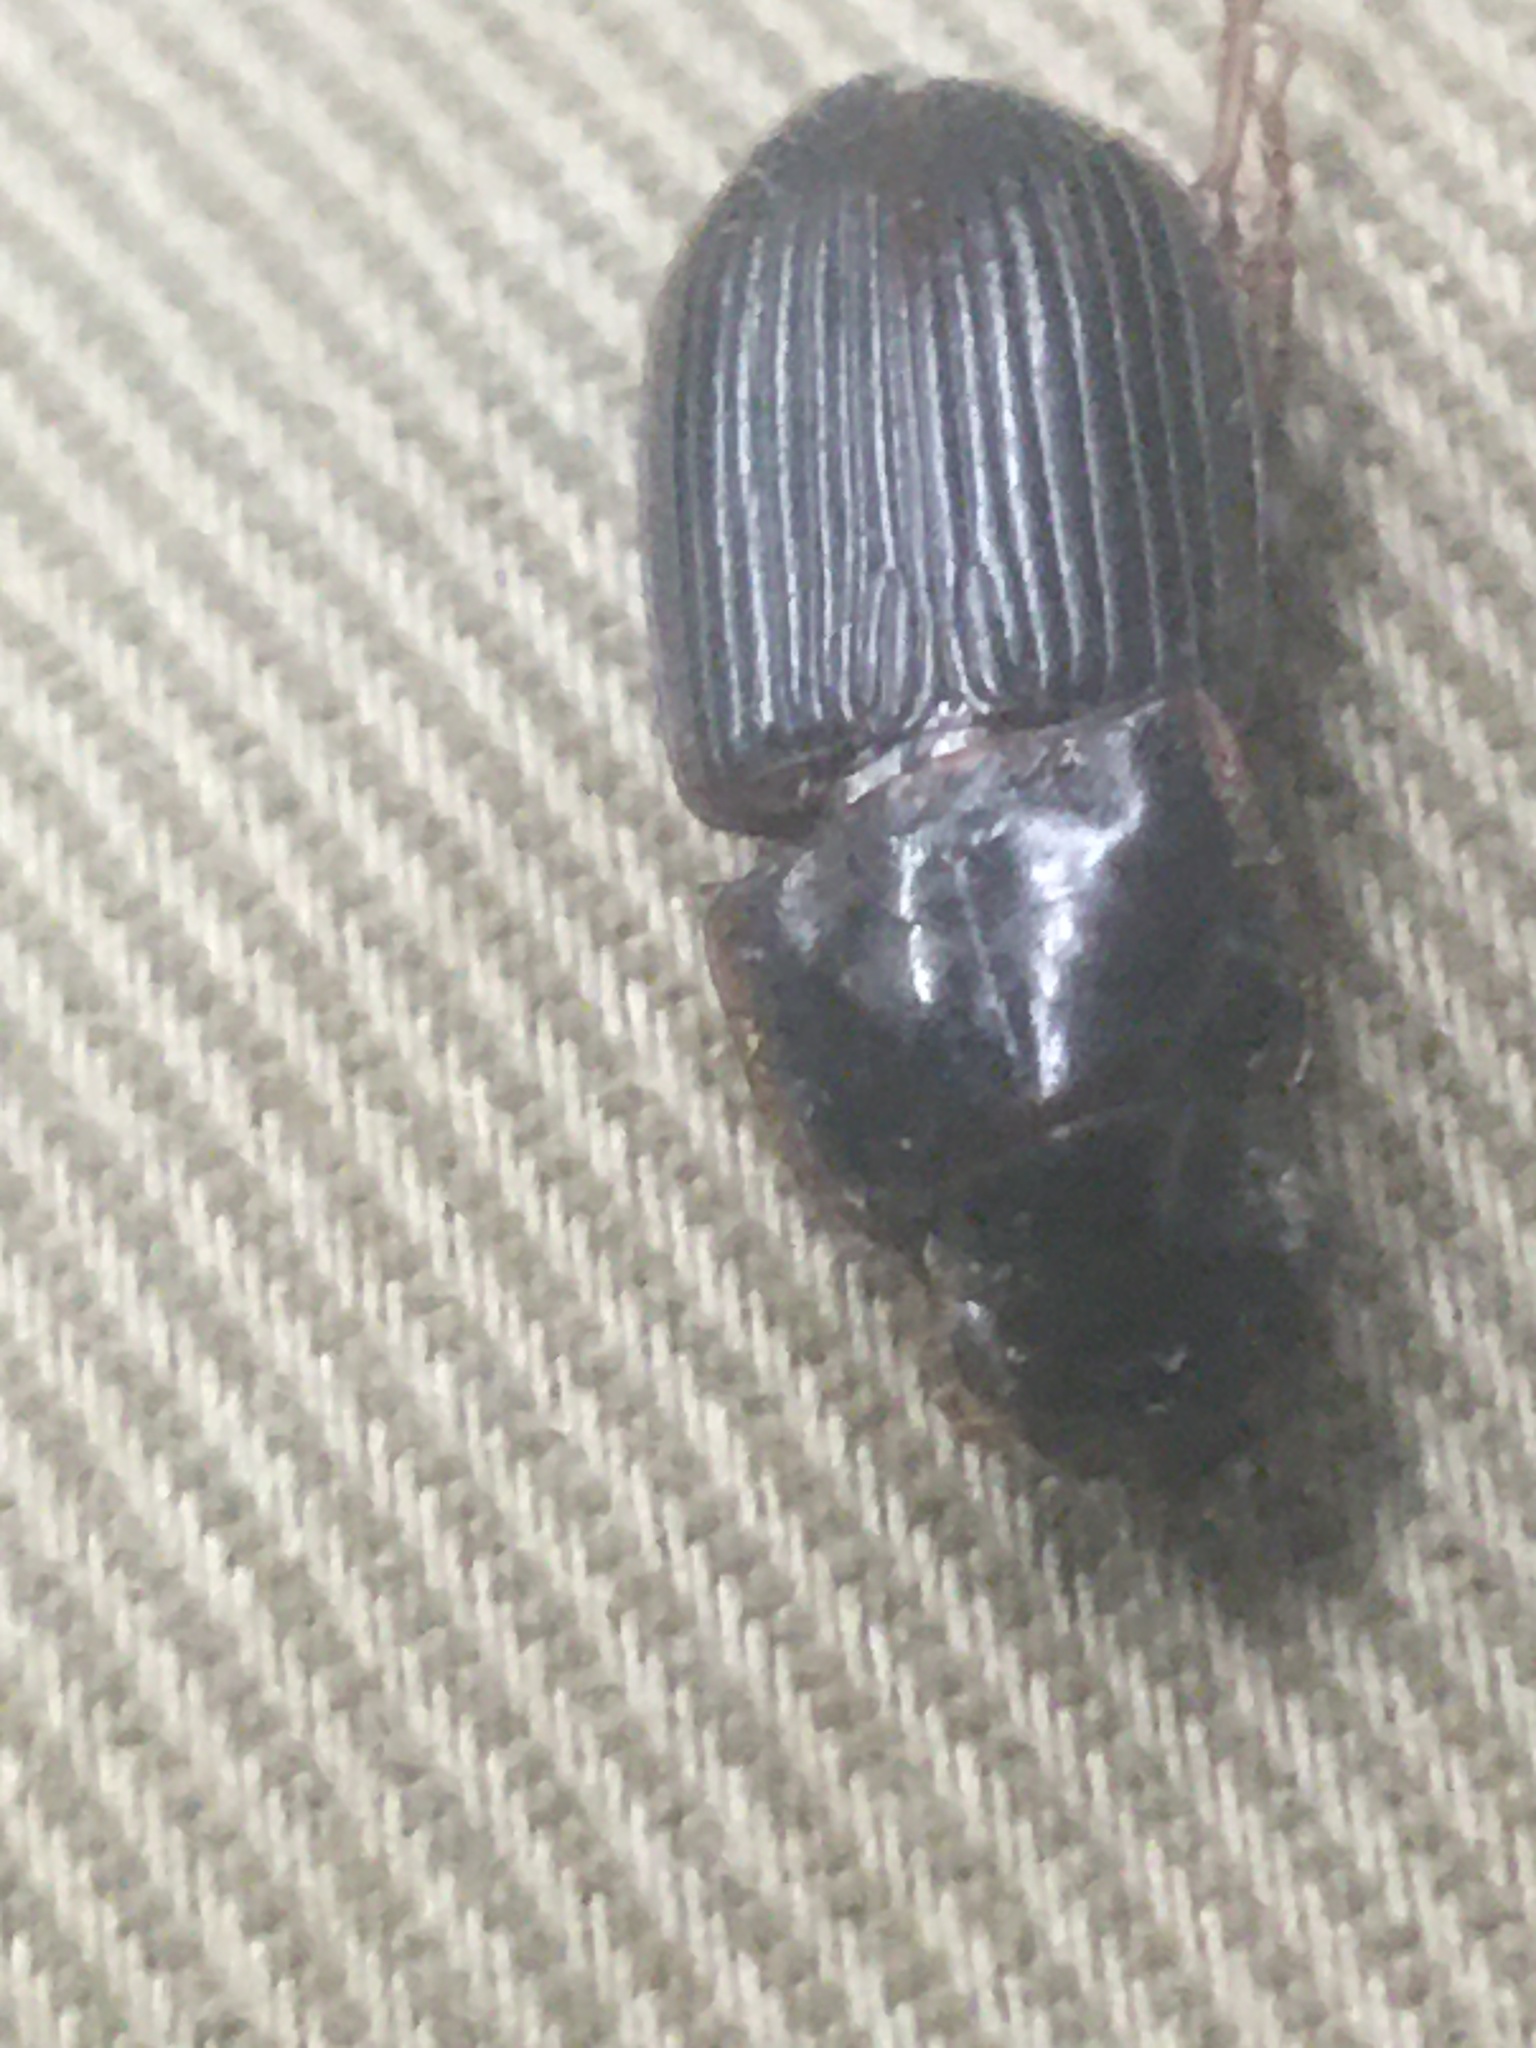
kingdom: Animalia
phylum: Arthropoda
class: Insecta
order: Coleoptera
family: Carabidae
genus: Harpalus
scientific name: Harpalus pensylvanicus
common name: Pennsylvania dingy ground beetle
